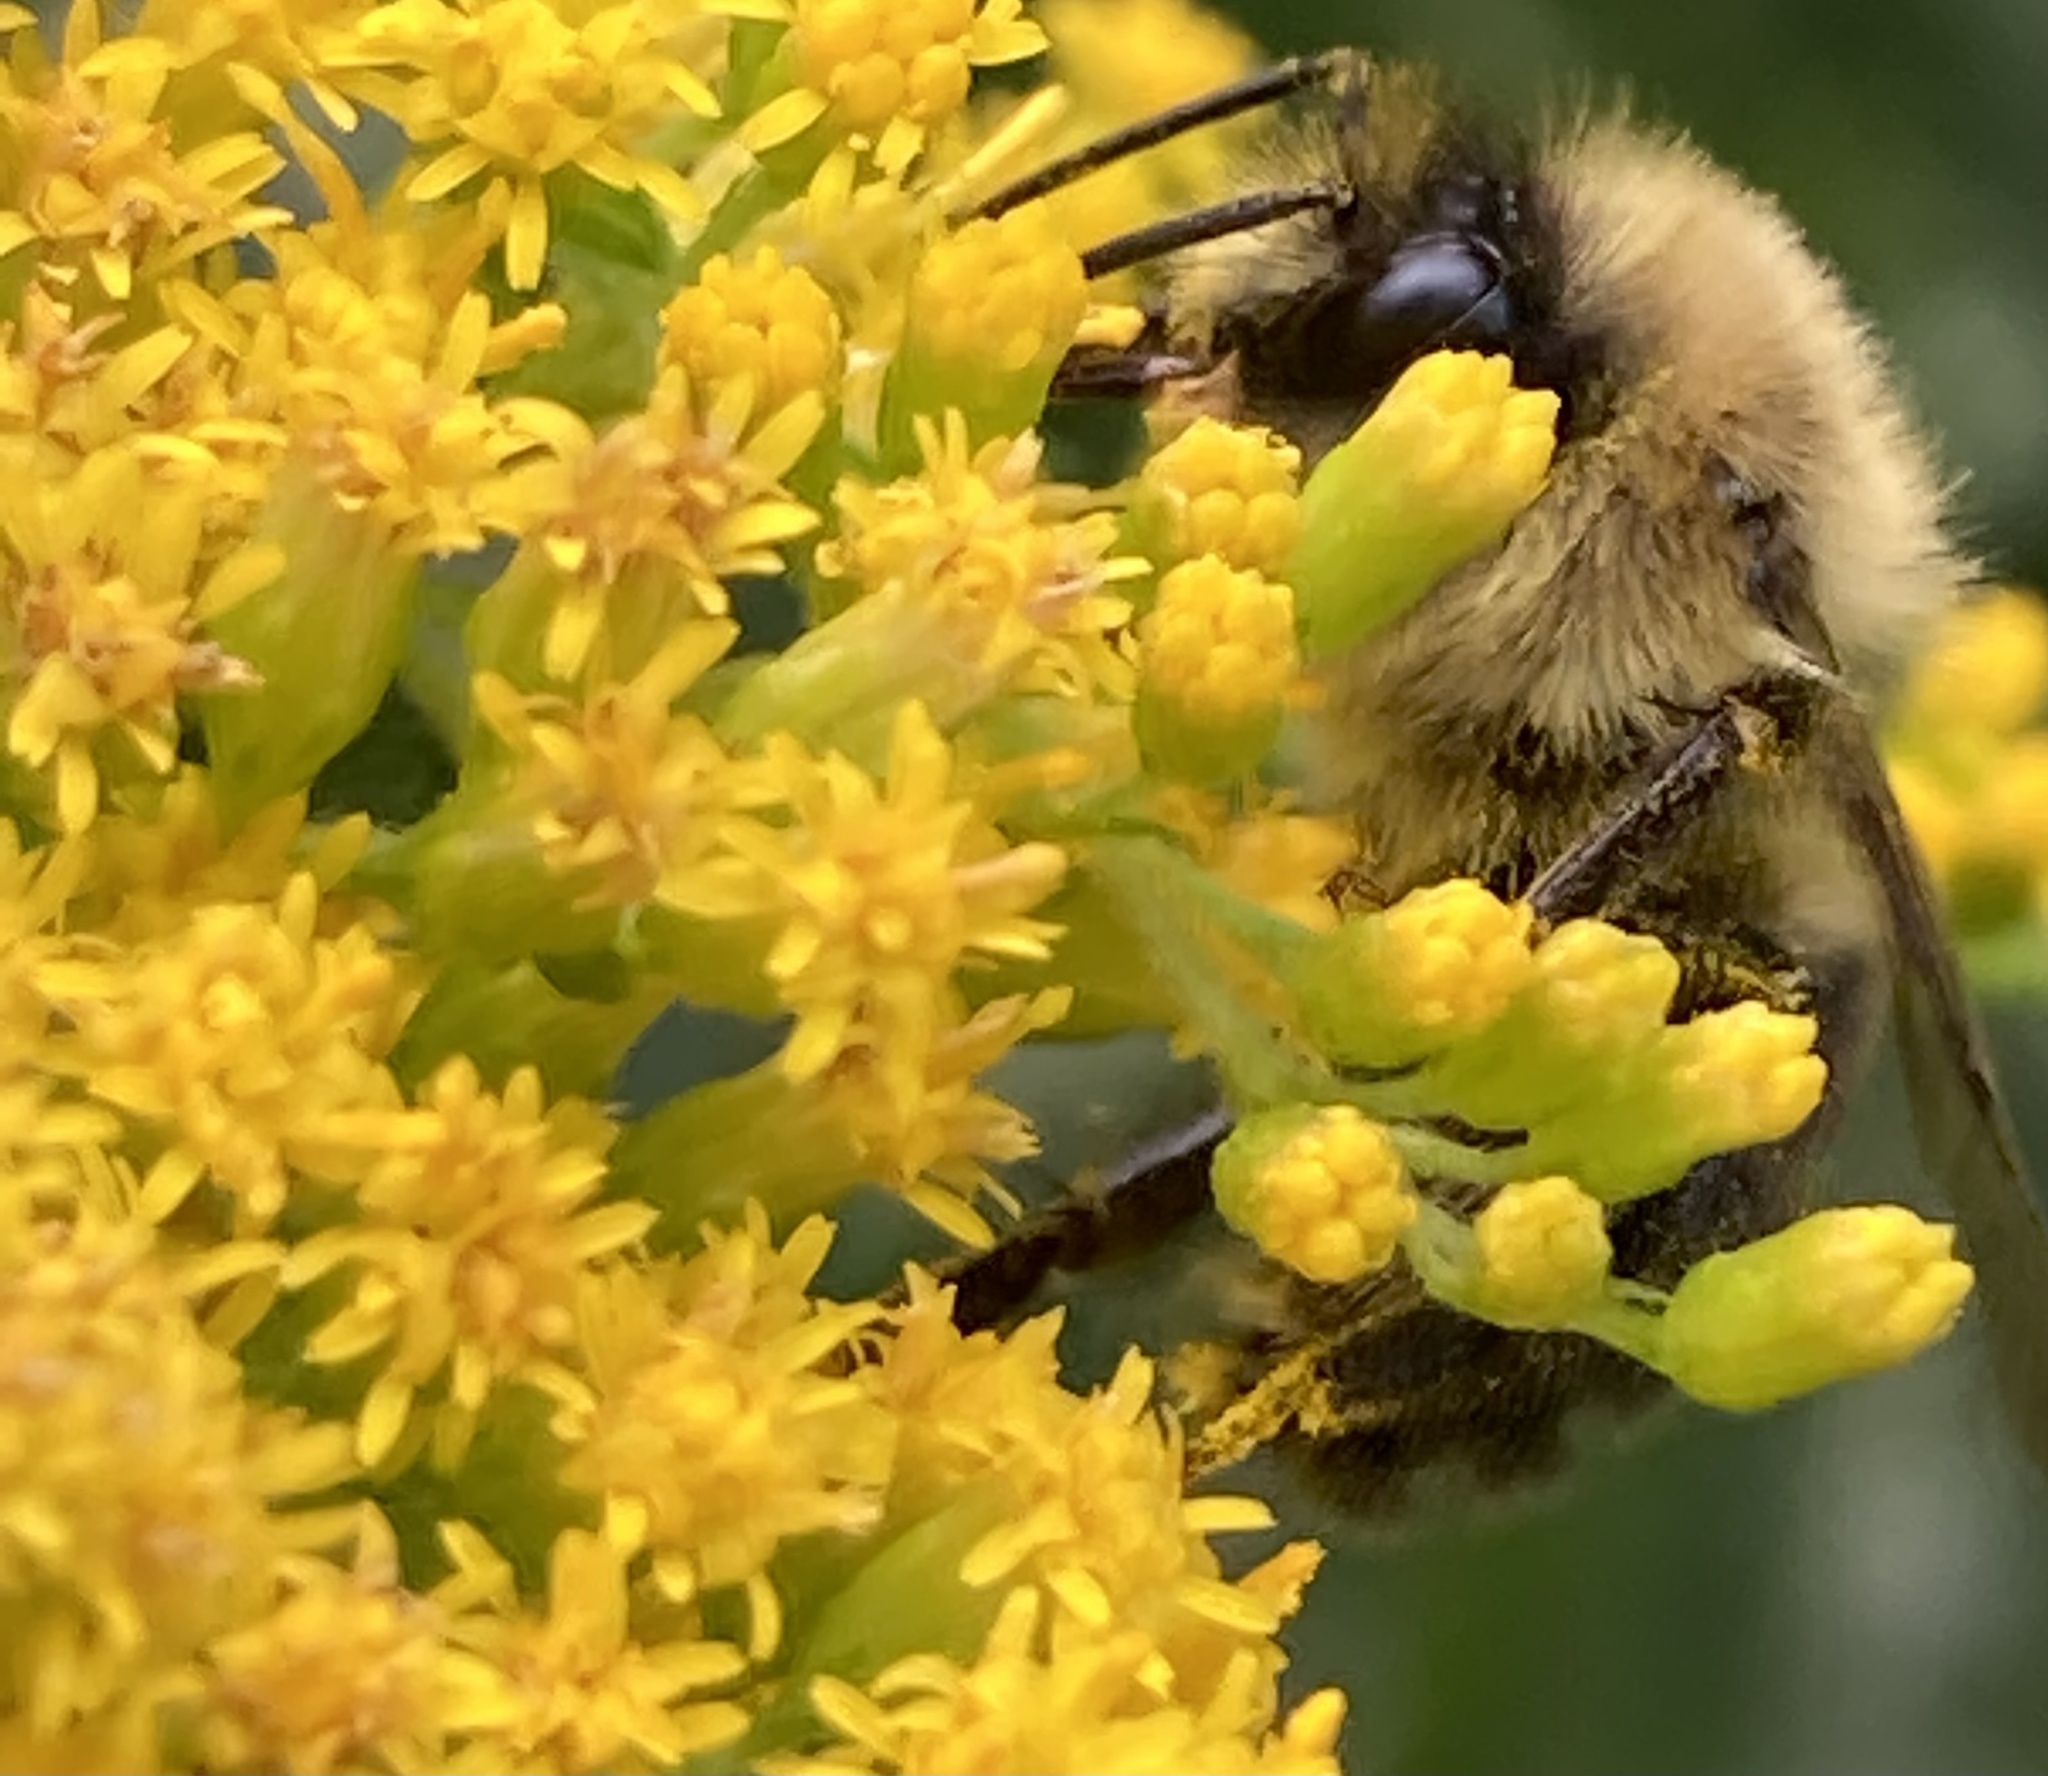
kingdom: Animalia
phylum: Arthropoda
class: Insecta
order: Hymenoptera
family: Apidae
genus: Bombus
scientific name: Bombus impatiens
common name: Common eastern bumble bee
